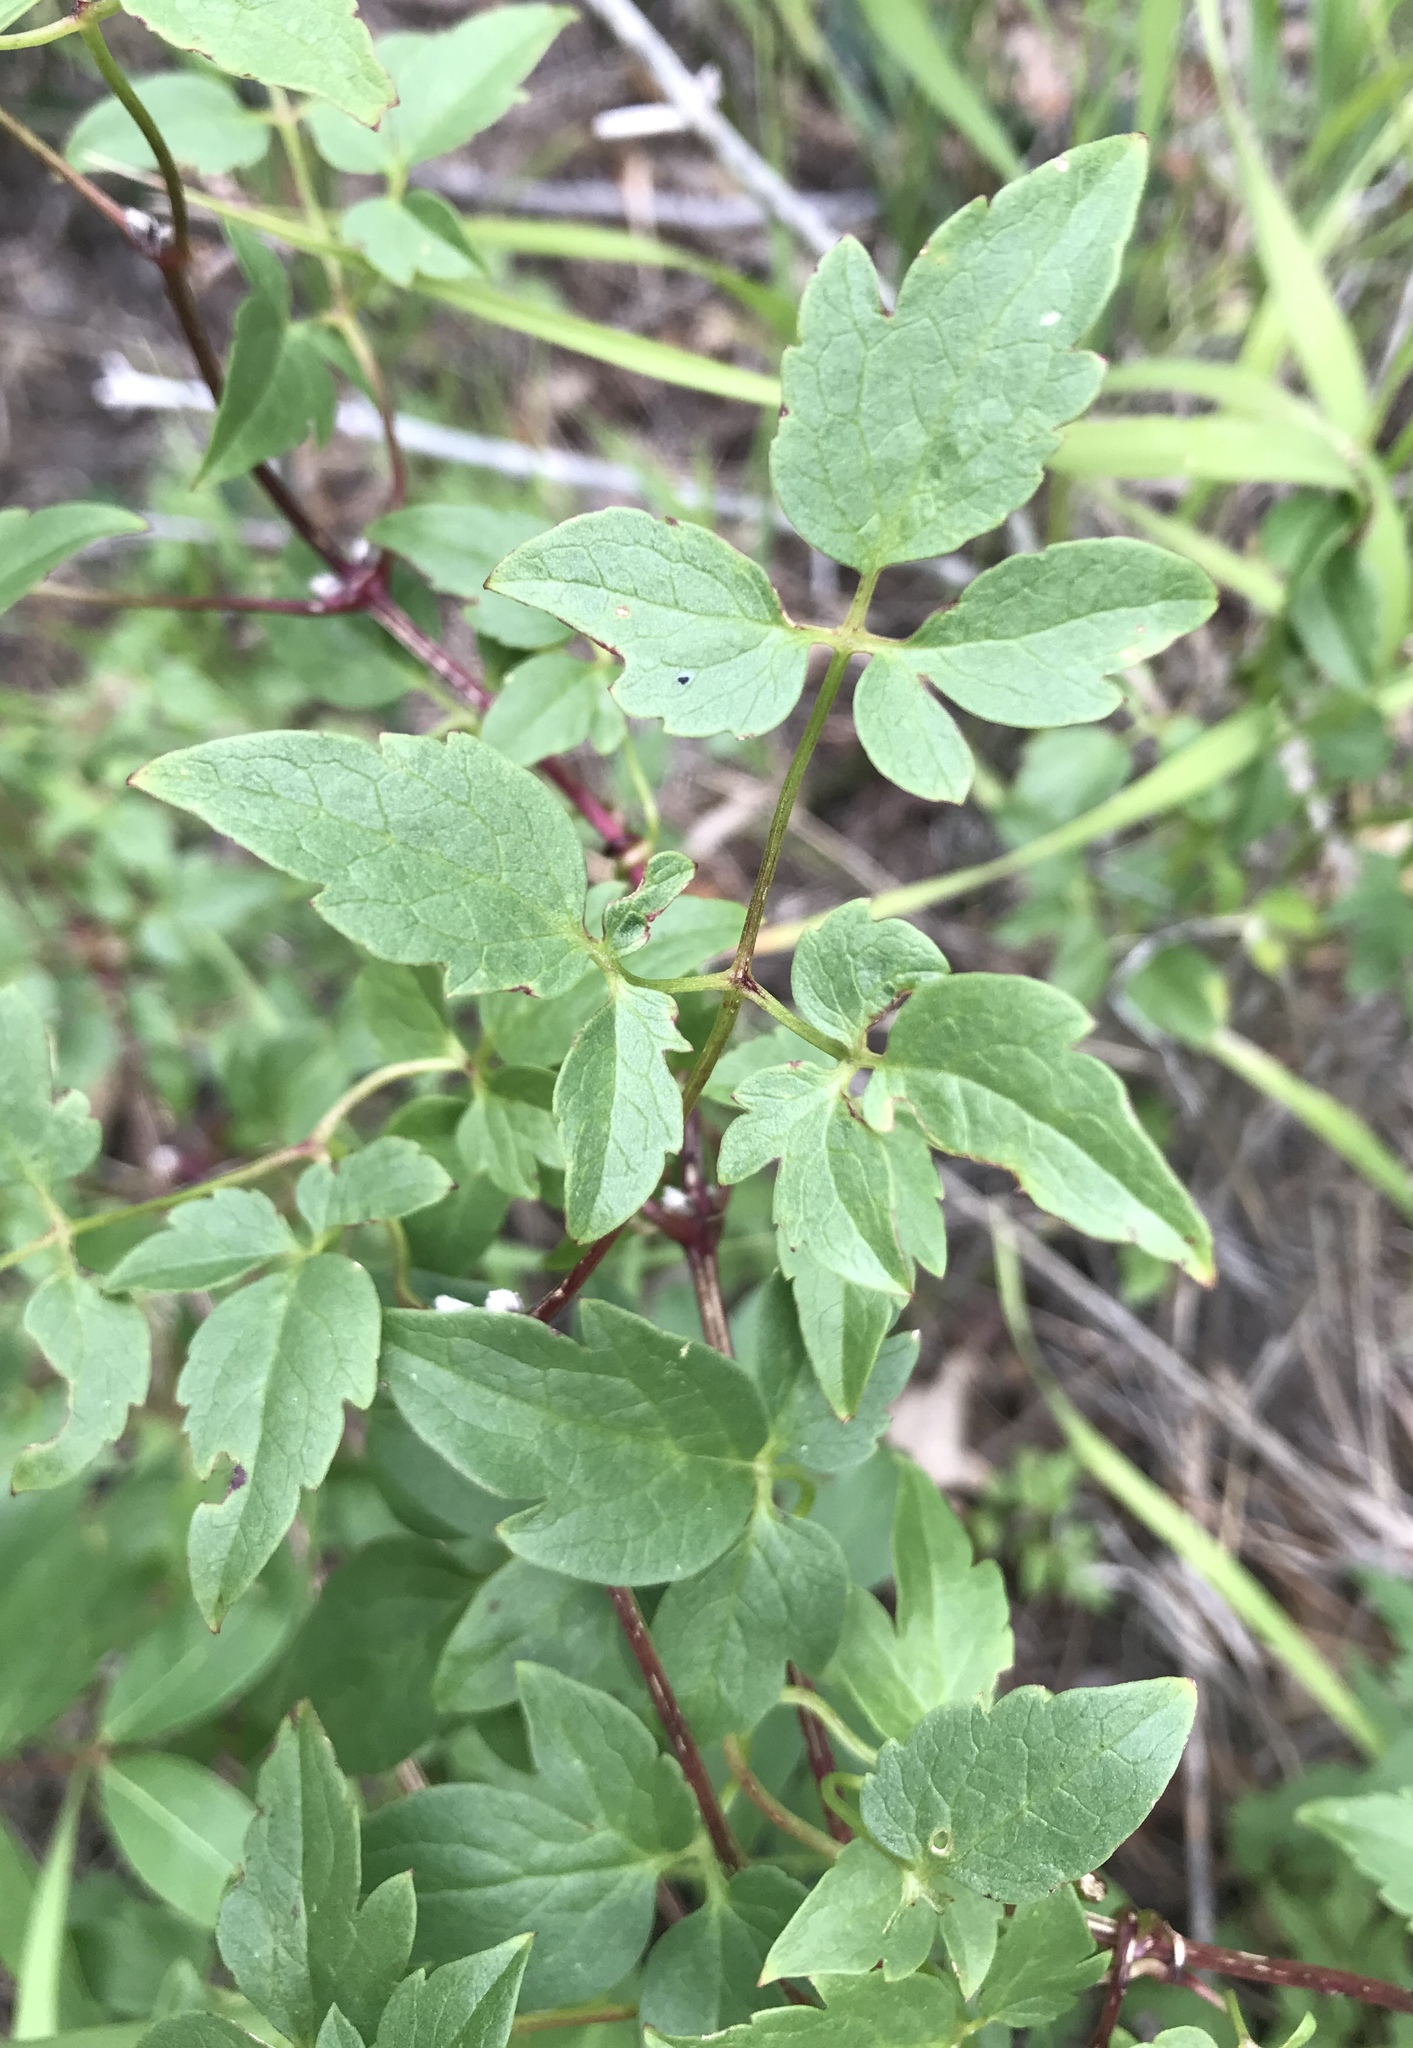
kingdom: Plantae
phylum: Tracheophyta
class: Magnoliopsida
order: Ranunculales
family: Ranunculaceae
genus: Clematis
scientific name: Clematis hirsutissima
